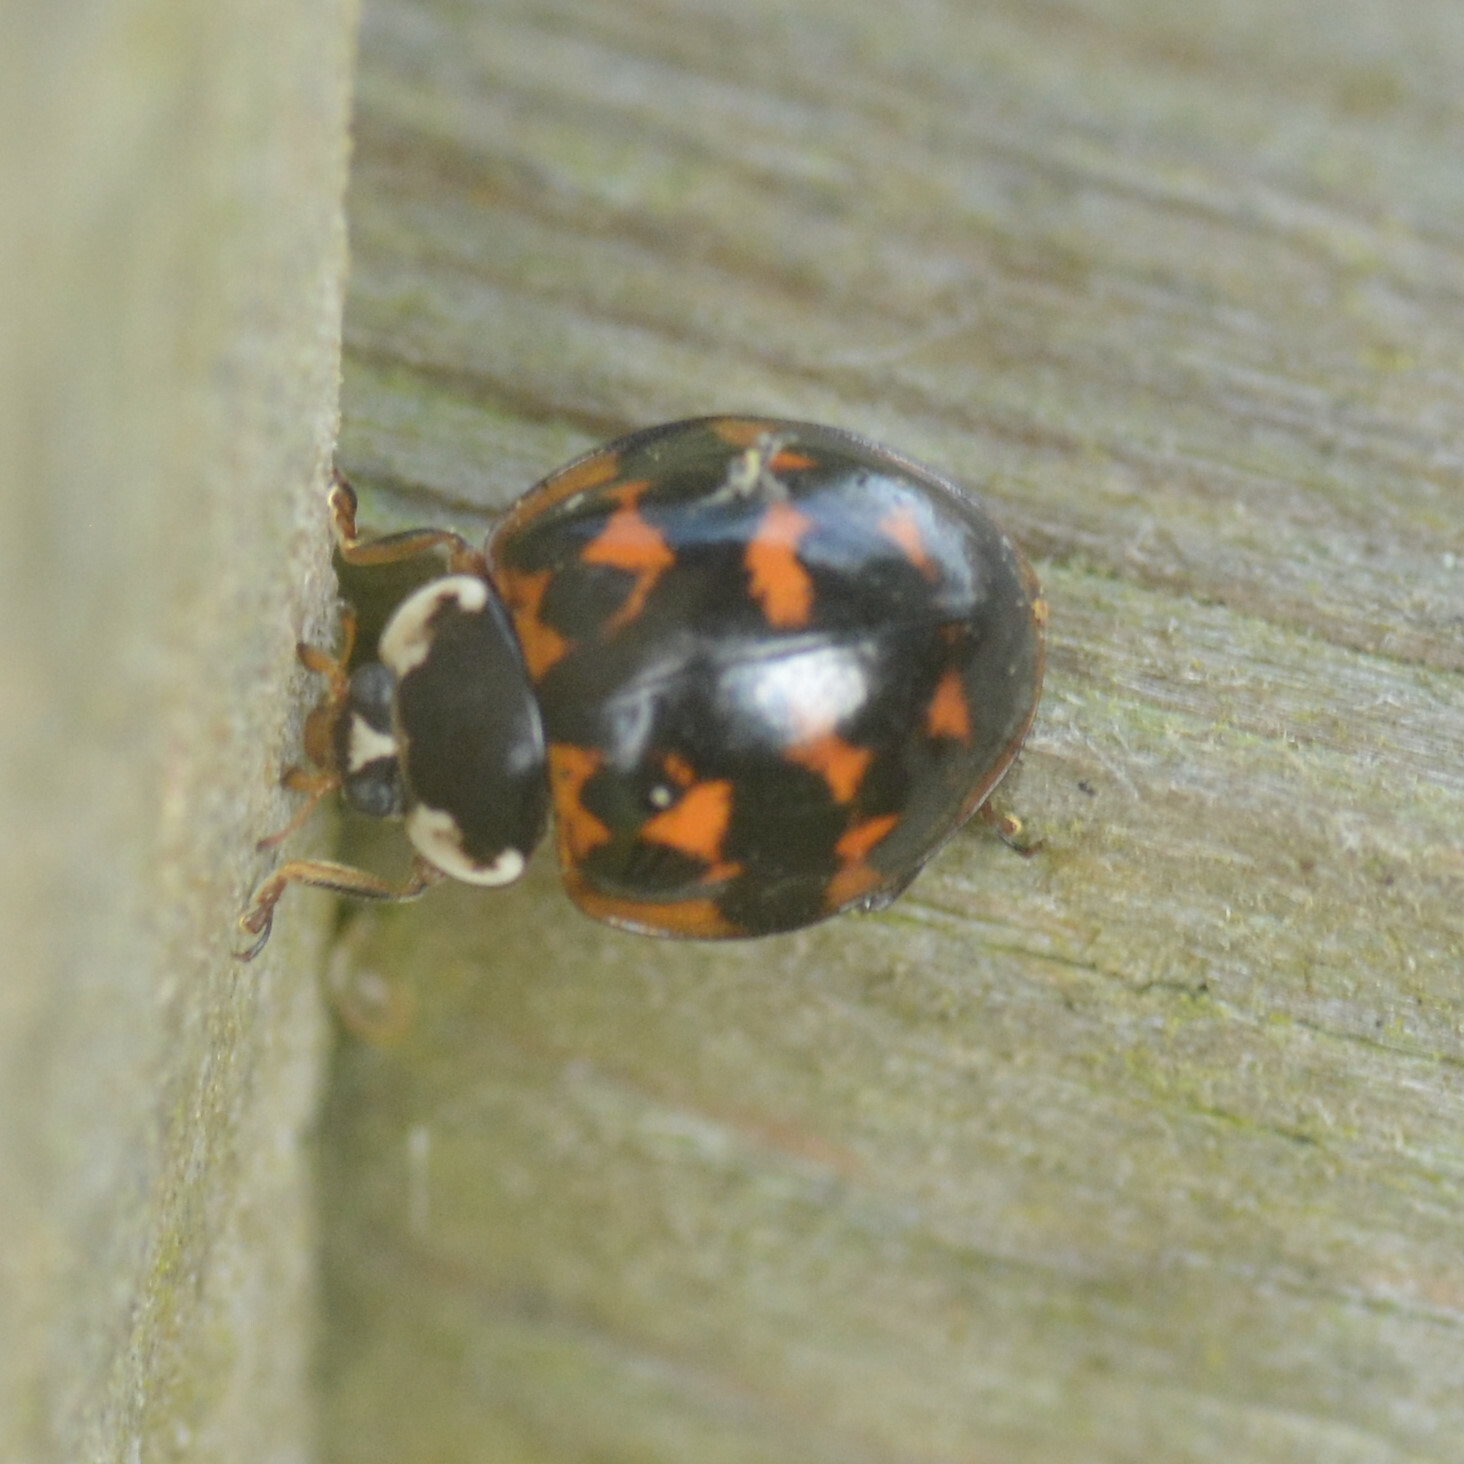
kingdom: Animalia
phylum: Arthropoda
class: Insecta
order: Coleoptera
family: Coccinellidae
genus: Harmonia
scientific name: Harmonia axyridis
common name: Harlequin ladybird
